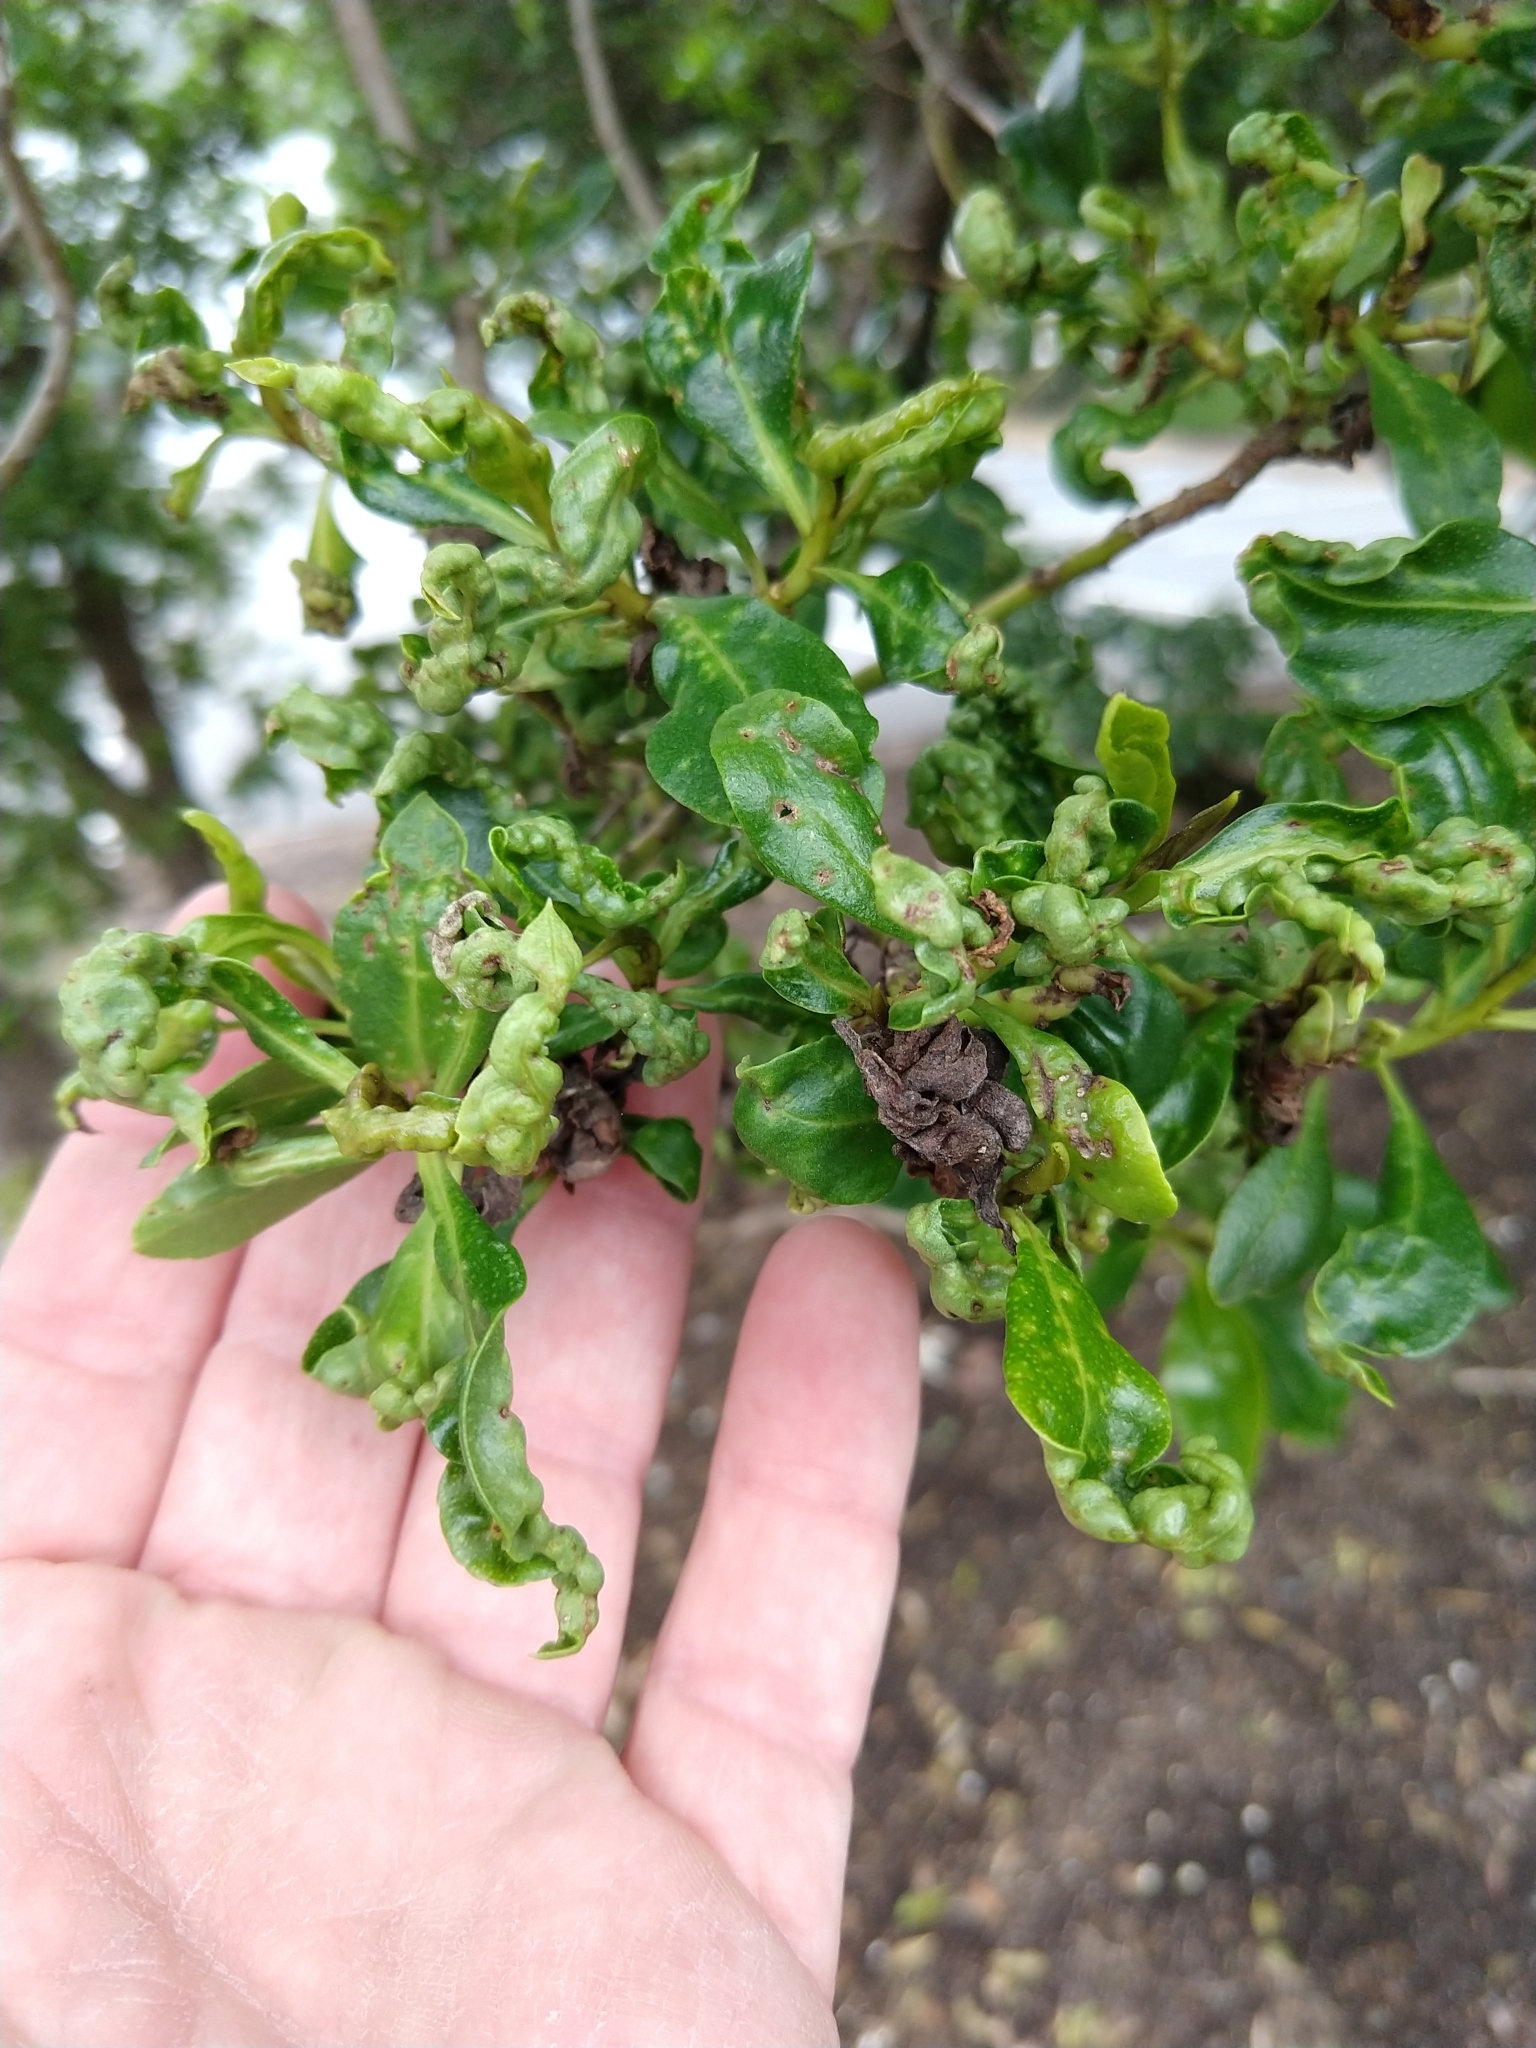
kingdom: Animalia
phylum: Arthropoda
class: Insecta
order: Thysanoptera
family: Phlaeothripidae
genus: Klambothrips
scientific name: Klambothrips myopori
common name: Myoporum thrips
